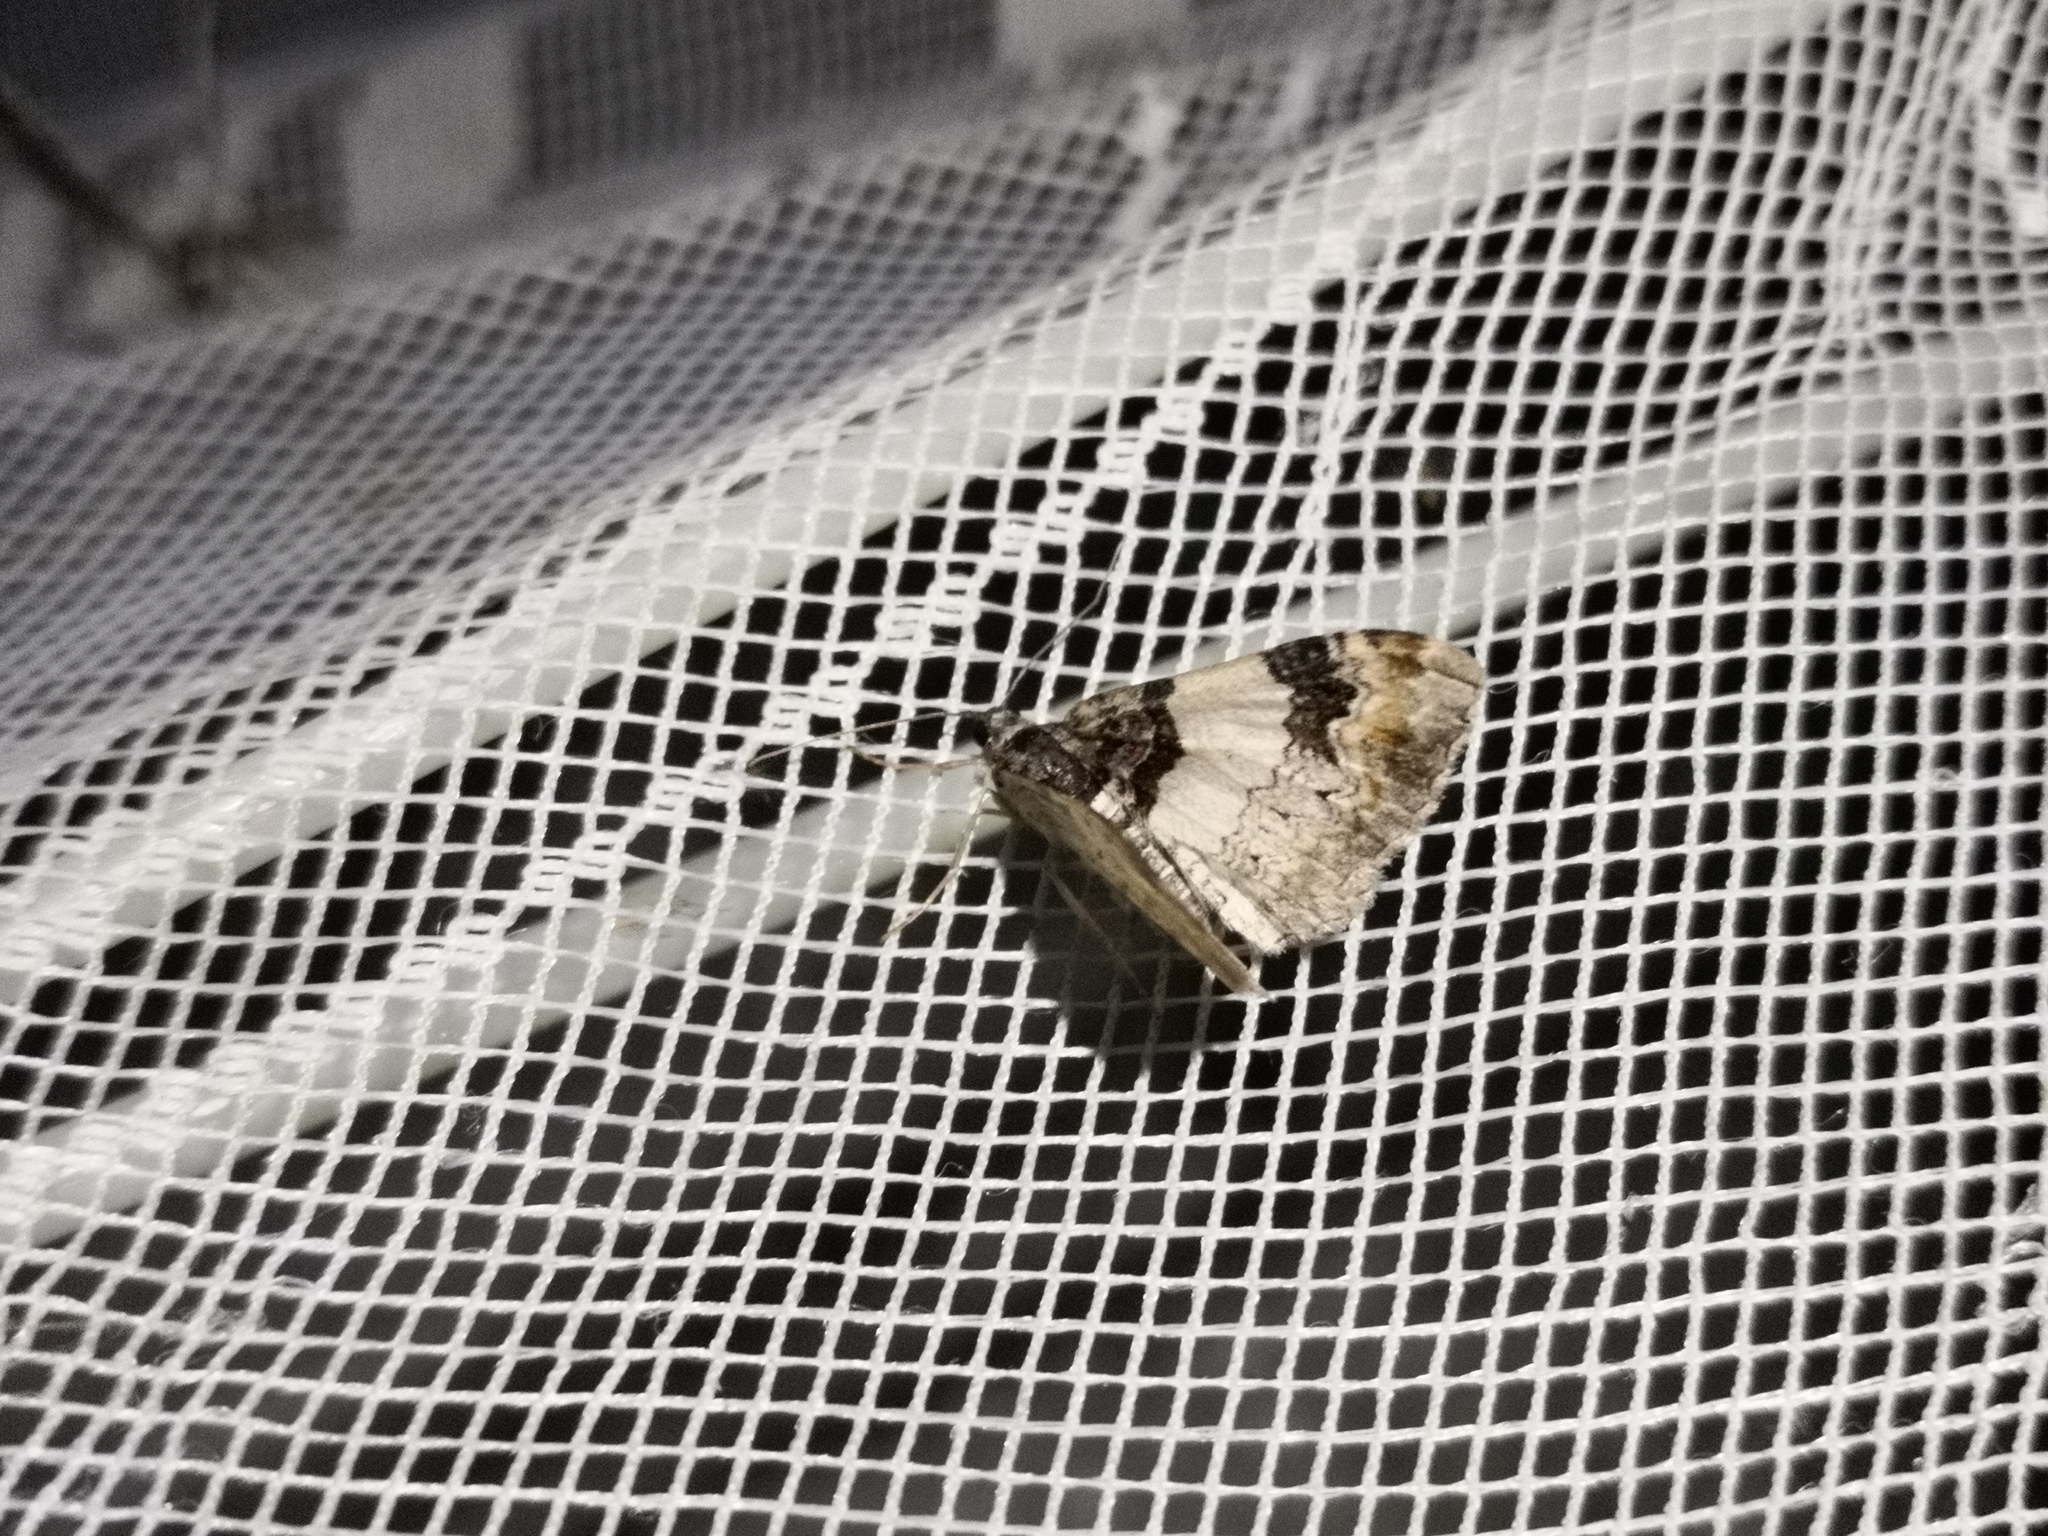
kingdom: Animalia
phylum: Arthropoda
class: Insecta
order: Lepidoptera
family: Geometridae
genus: Catarhoe
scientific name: Catarhoe cuculata
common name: Royal mantle
